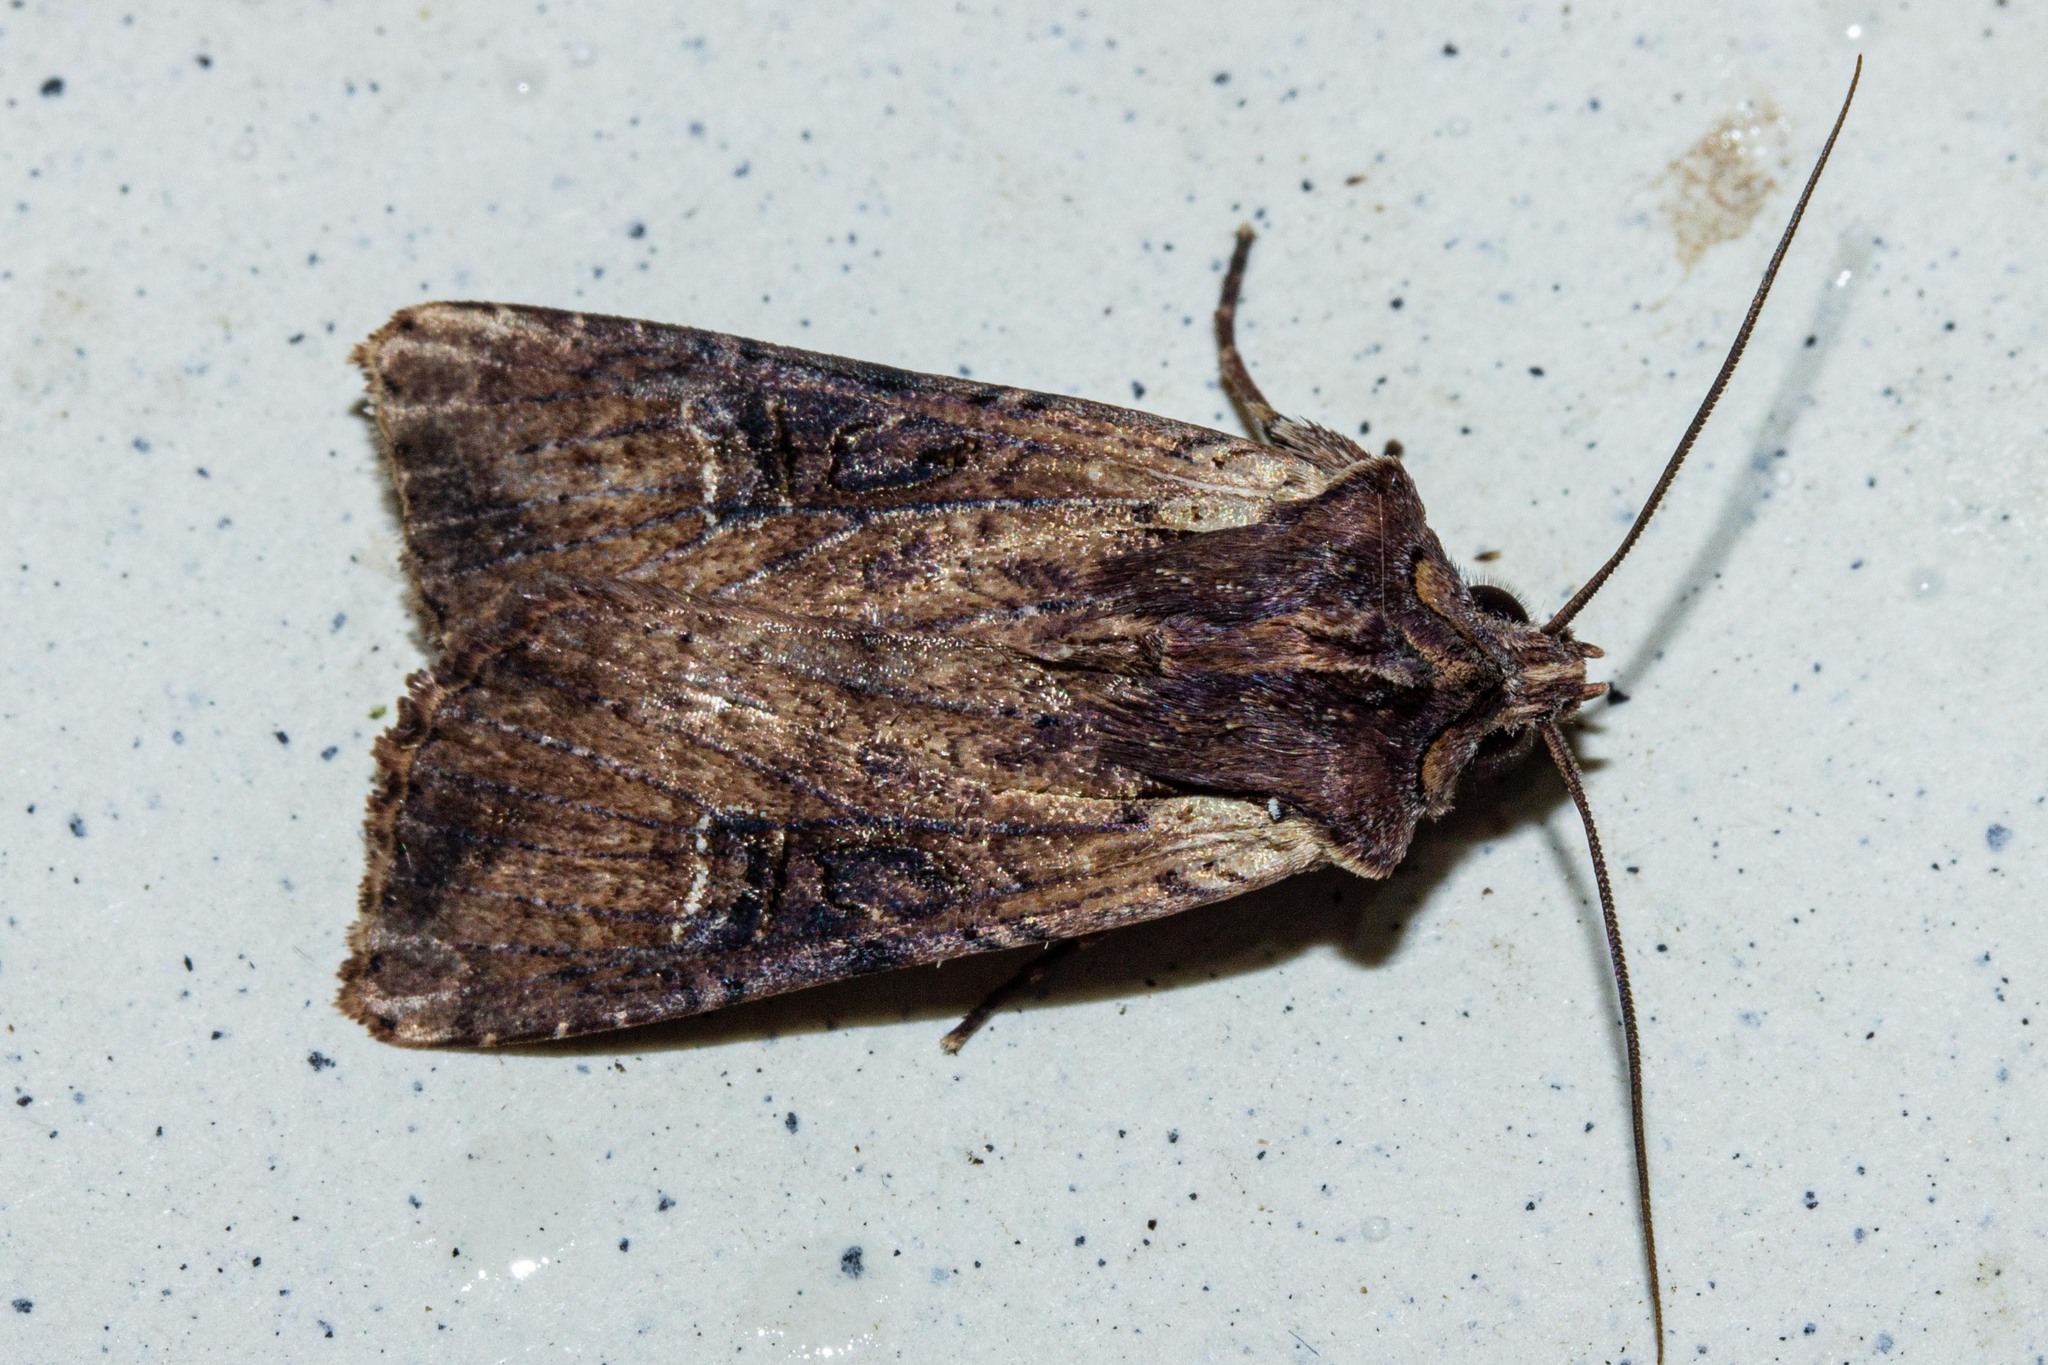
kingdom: Animalia
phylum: Arthropoda
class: Insecta
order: Lepidoptera
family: Noctuidae
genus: Ichneutica
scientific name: Ichneutica omoplaca
